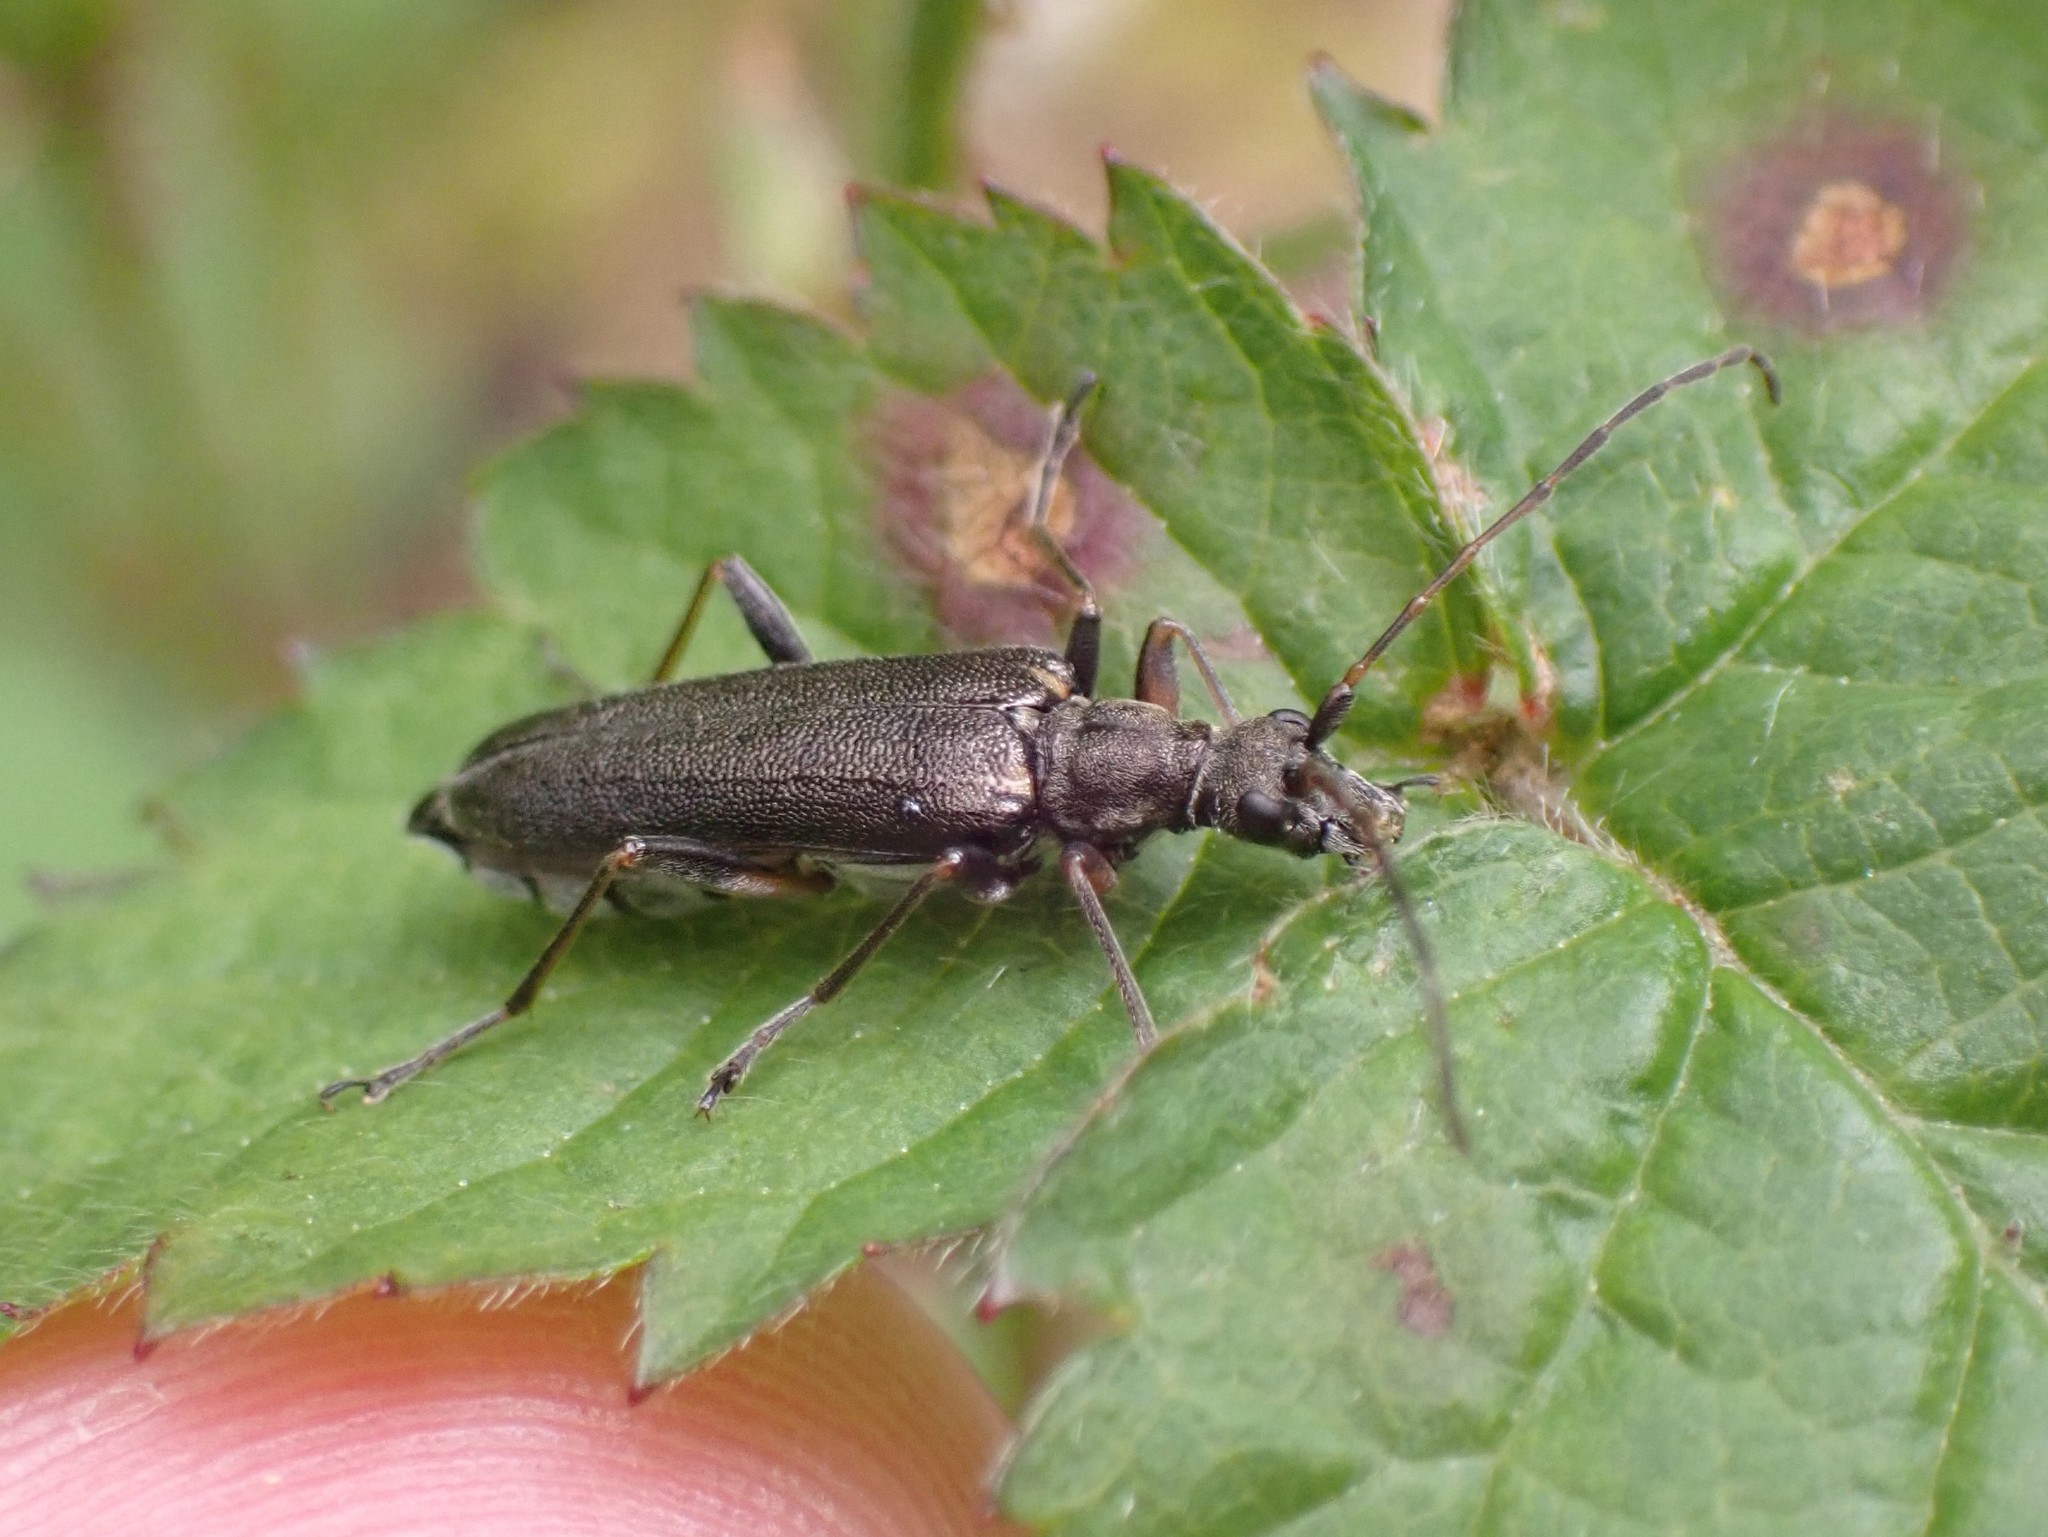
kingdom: Animalia
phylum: Arthropoda
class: Insecta
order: Coleoptera
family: Cerambycidae
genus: Leptalia
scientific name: Leptalia macilenta
